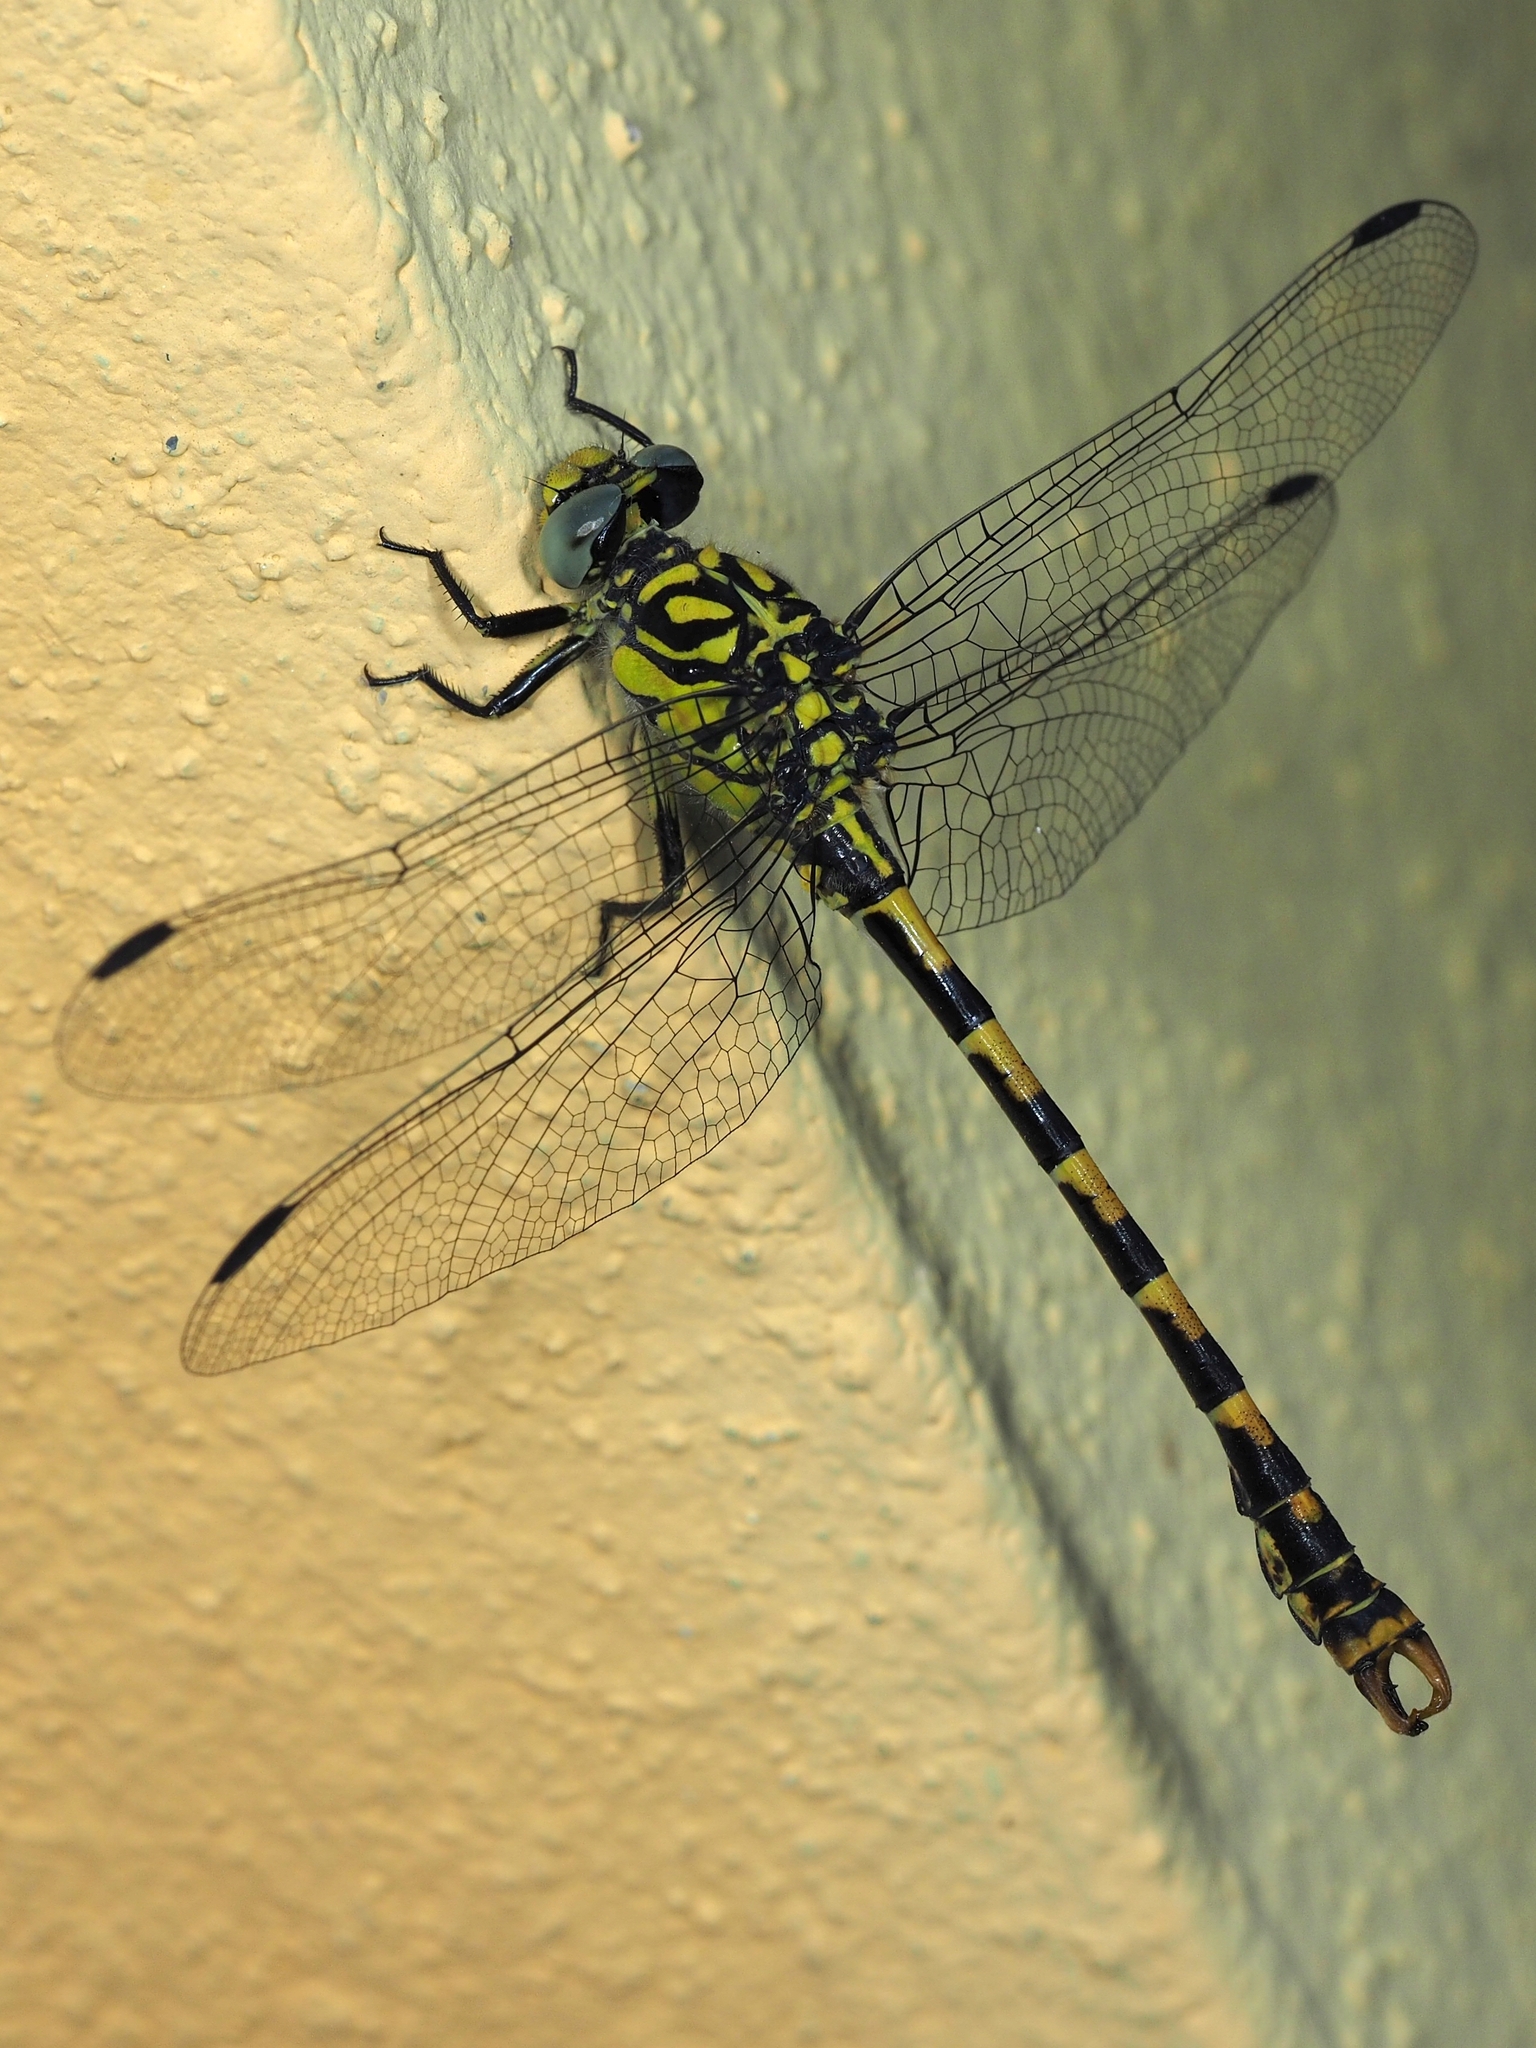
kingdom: Animalia
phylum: Arthropoda
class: Insecta
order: Odonata
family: Gomphidae
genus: Onychogomphus
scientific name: Onychogomphus forcipatus
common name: Small pincertail
